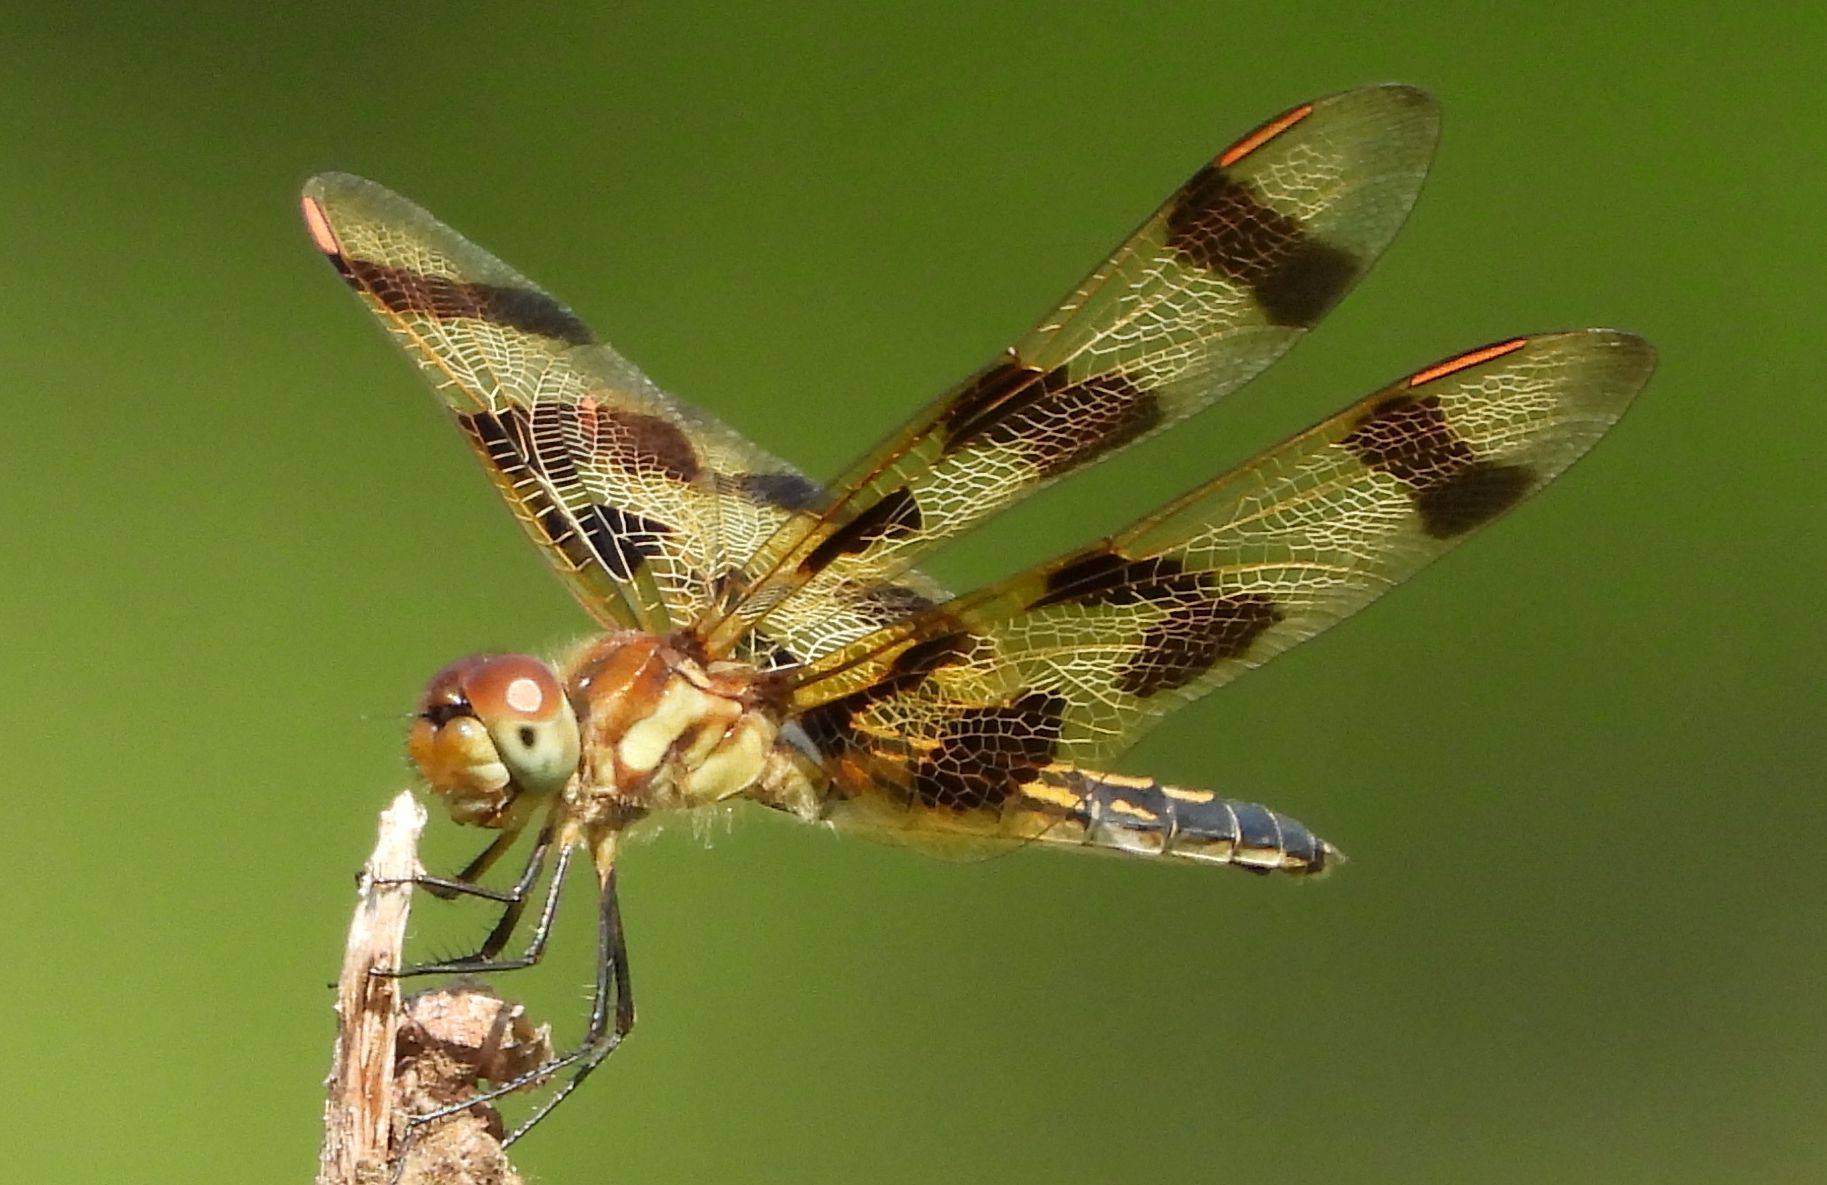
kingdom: Animalia
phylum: Arthropoda
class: Insecta
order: Odonata
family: Libellulidae
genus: Celithemis
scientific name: Celithemis eponina
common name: Halloween pennant
